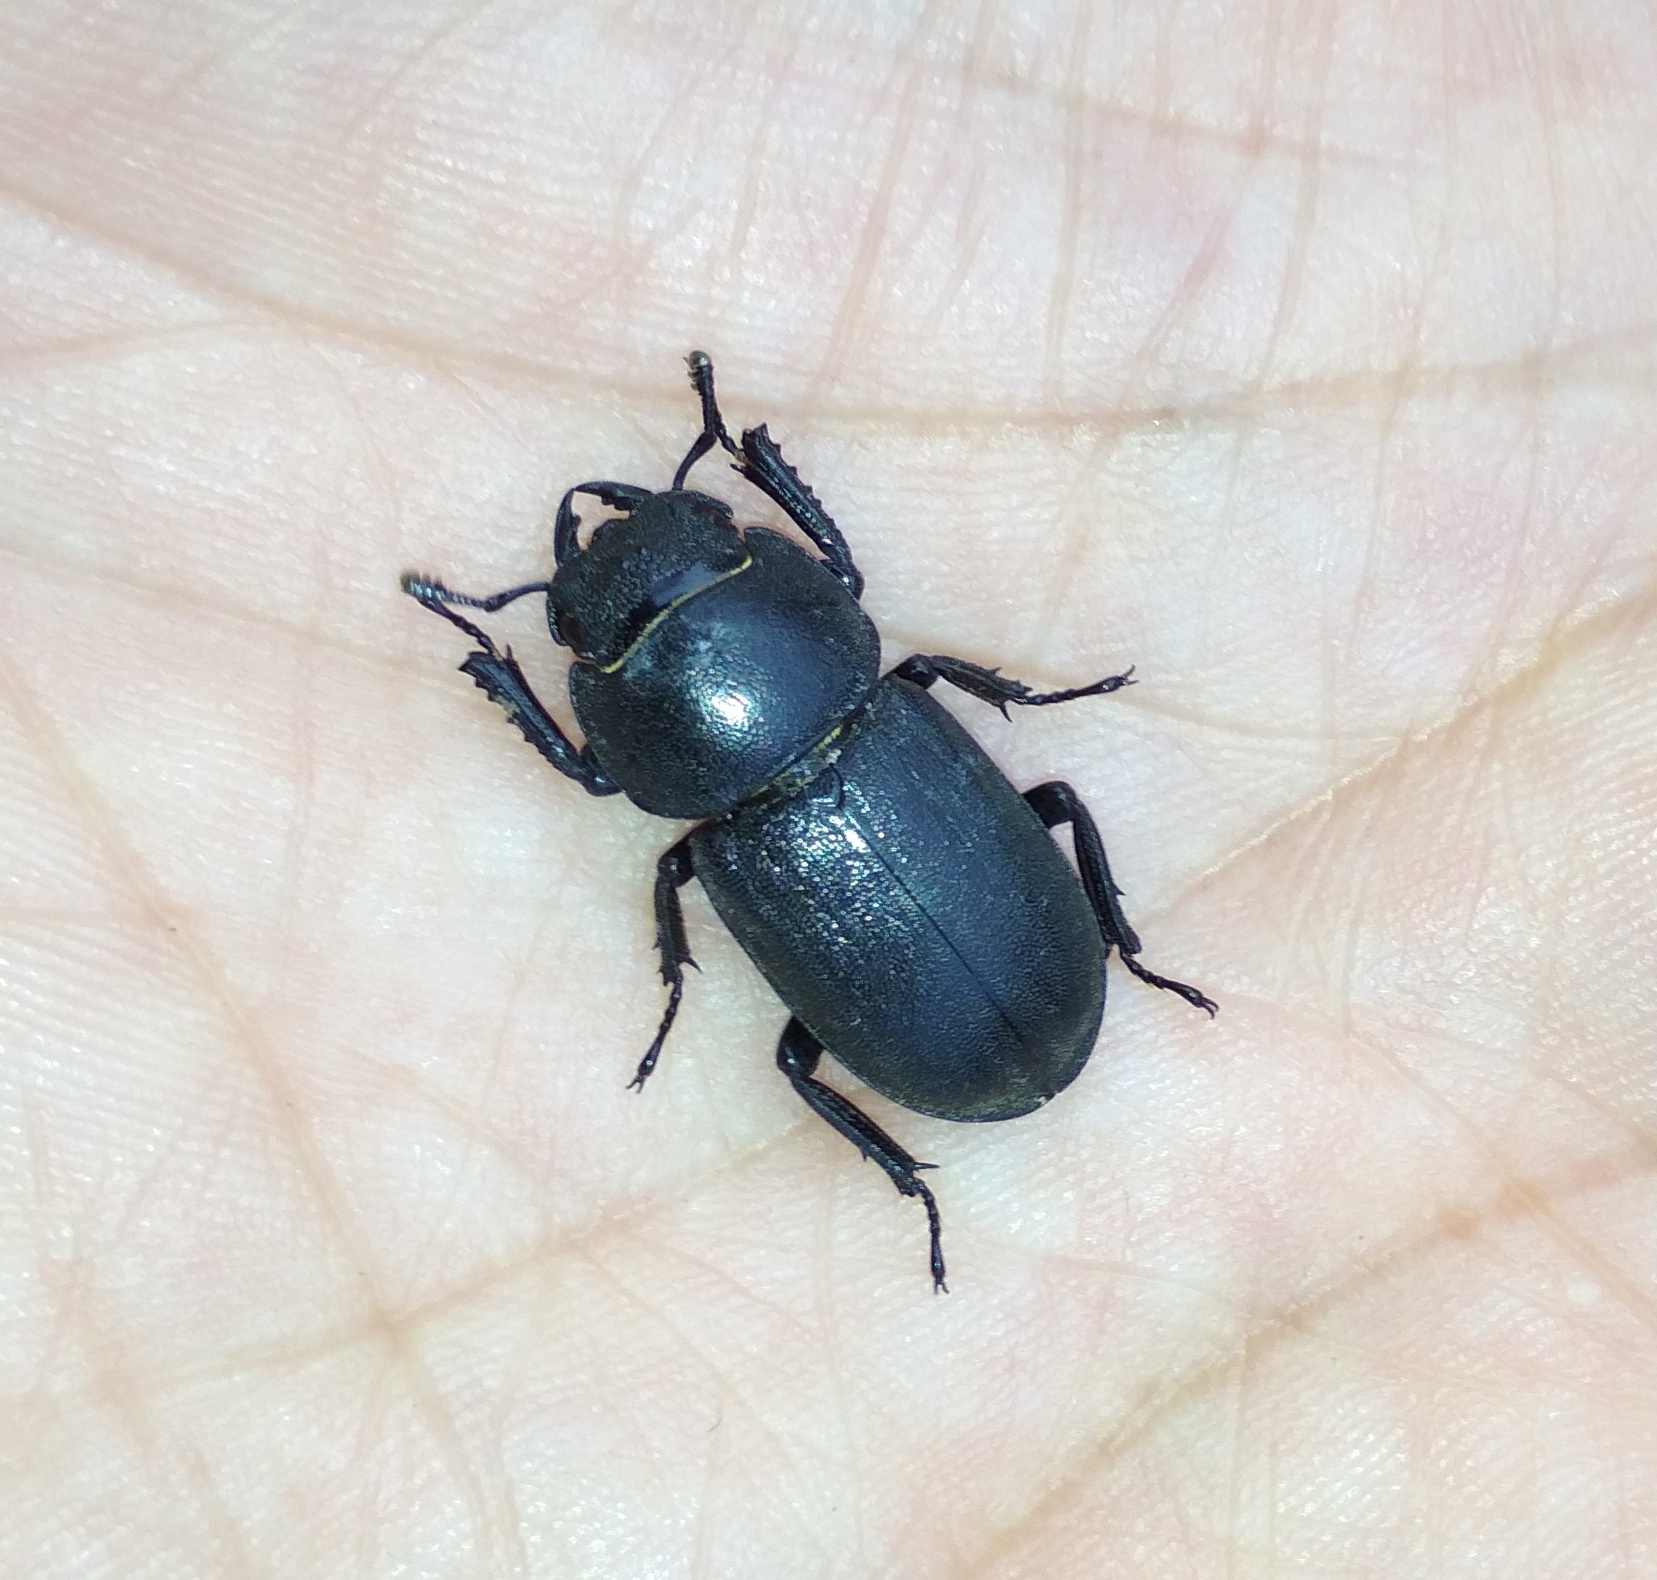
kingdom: Animalia
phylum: Arthropoda
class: Insecta
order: Coleoptera
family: Lucanidae
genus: Dorcus
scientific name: Dorcus parallelipipedus
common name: Lesser stag beetle
